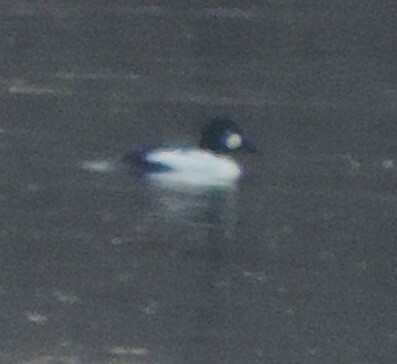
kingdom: Animalia
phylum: Chordata
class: Aves
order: Anseriformes
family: Anatidae
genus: Bucephala
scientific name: Bucephala clangula
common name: Common goldeneye
